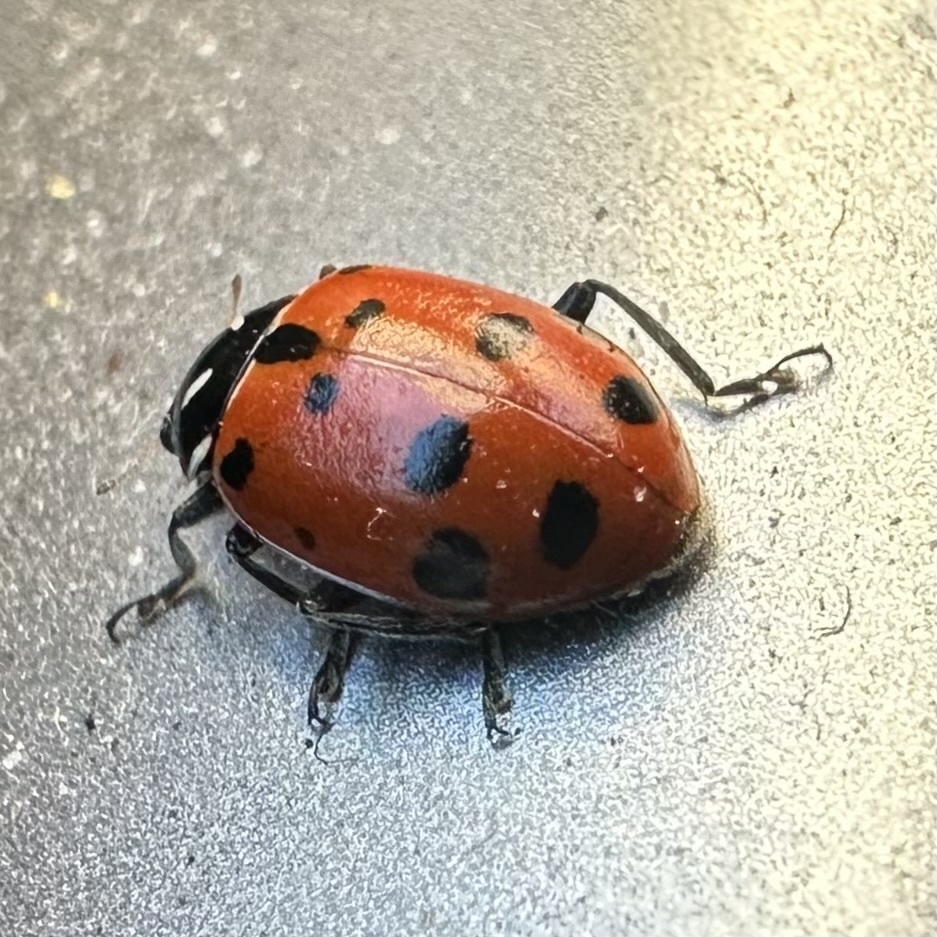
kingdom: Animalia
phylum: Arthropoda
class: Insecta
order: Coleoptera
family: Coccinellidae
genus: Hippodamia
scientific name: Hippodamia convergens
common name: Convergent lady beetle
